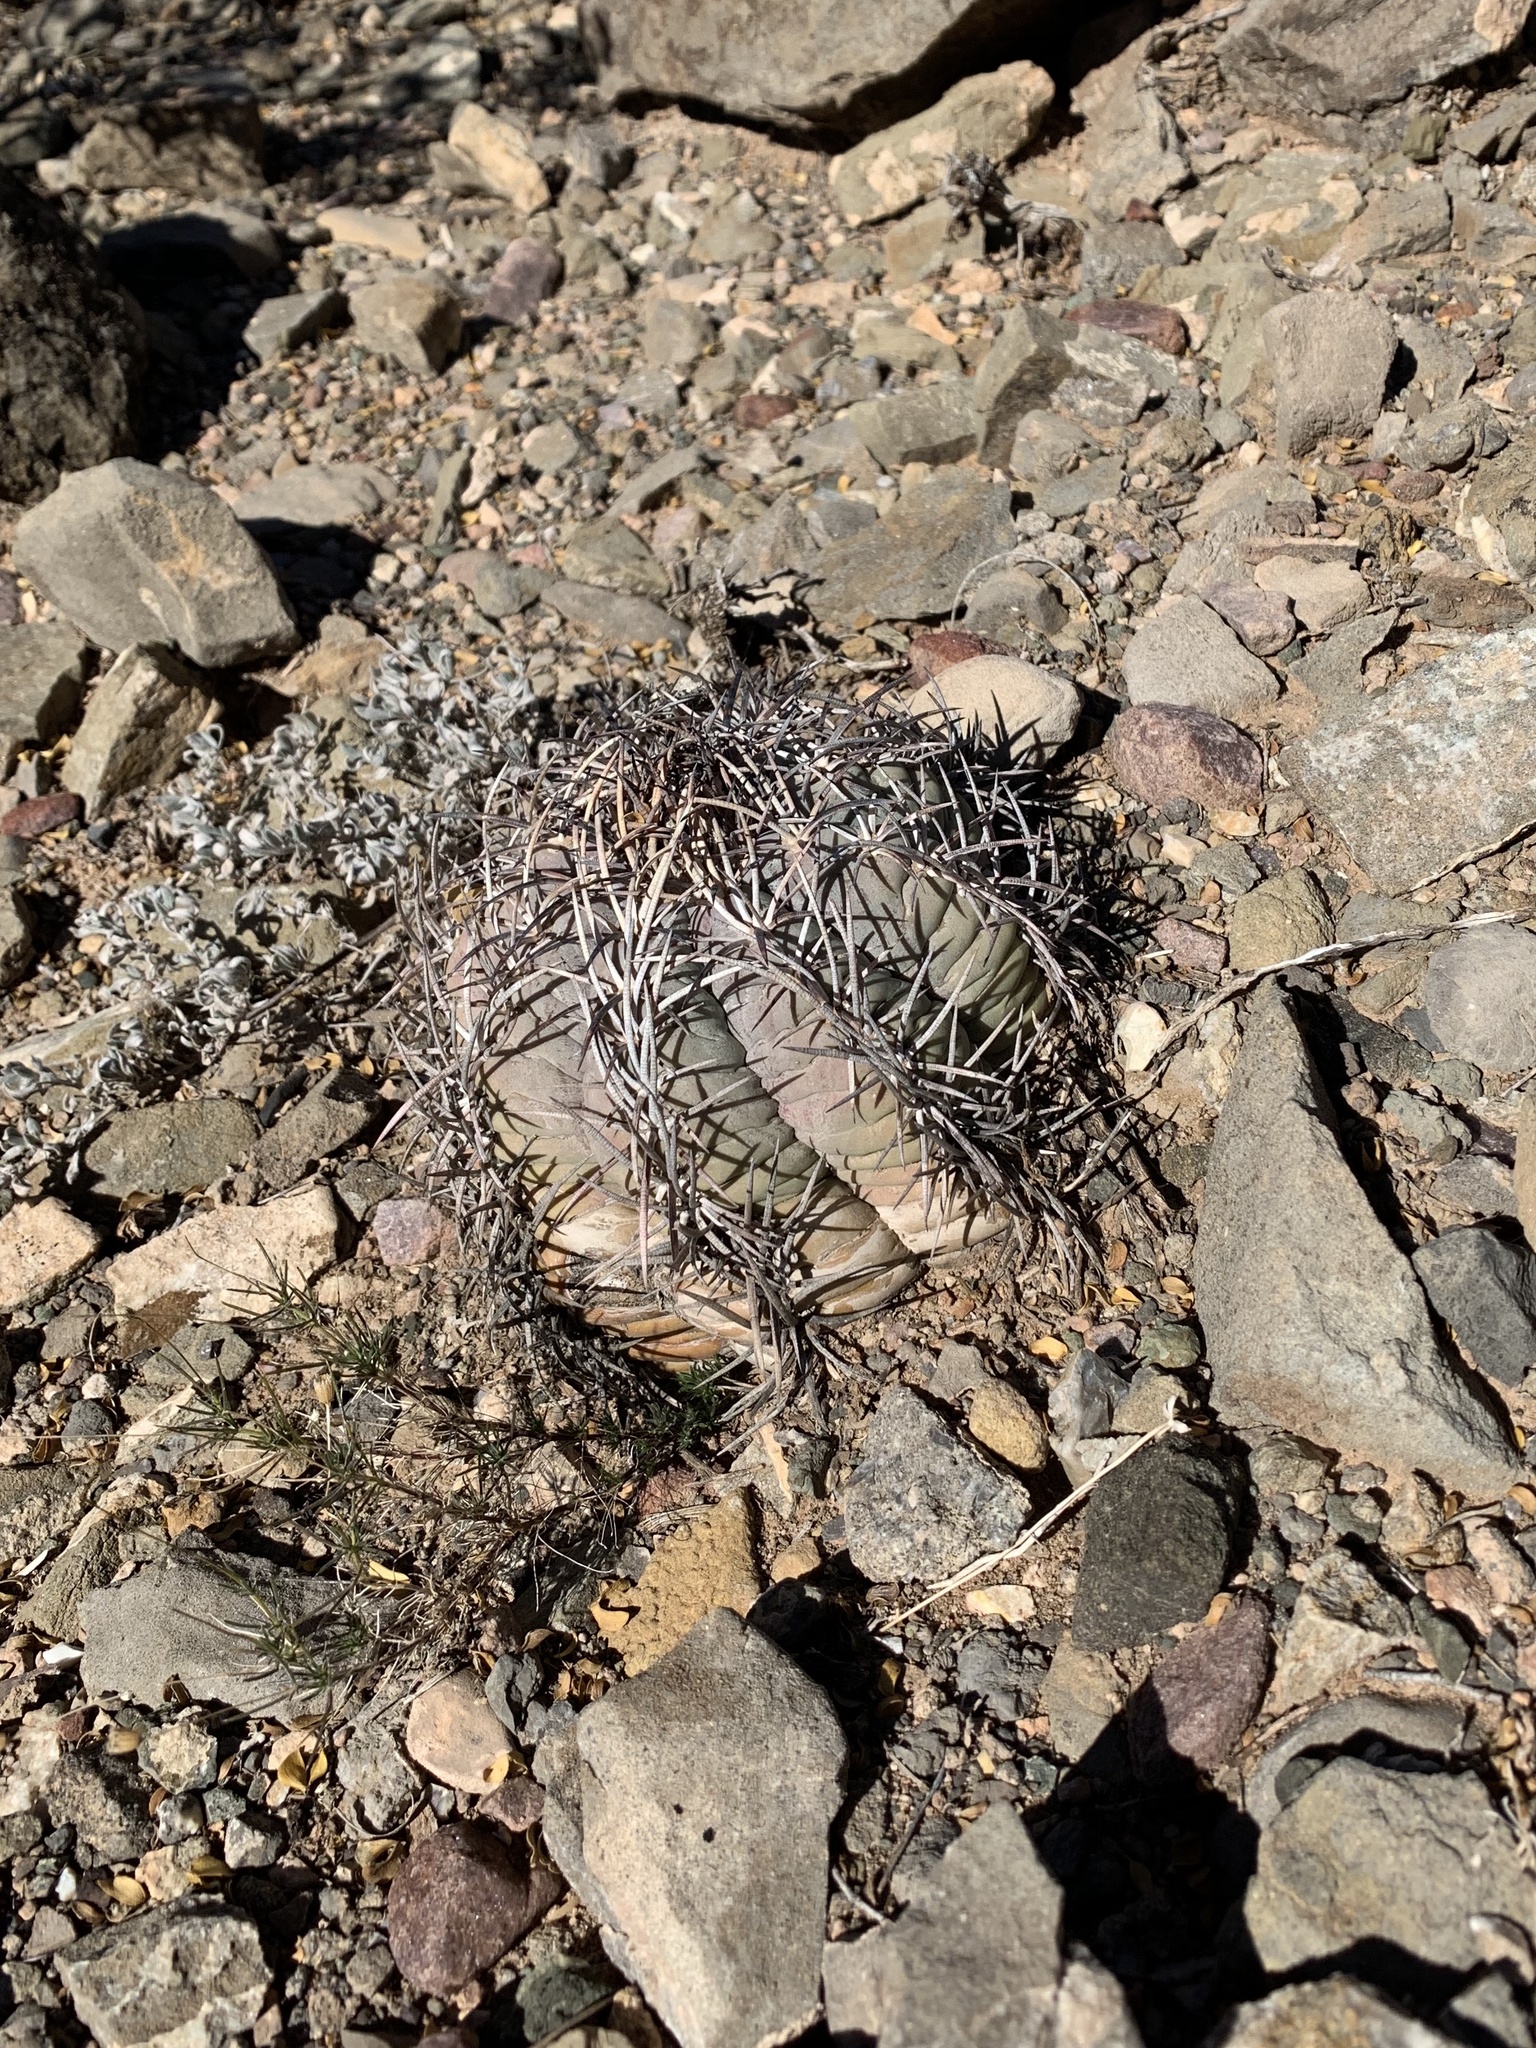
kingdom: Plantae
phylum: Tracheophyta
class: Magnoliopsida
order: Caryophyllales
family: Cactaceae
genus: Echinocactus
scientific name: Echinocactus horizonthalonius
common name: Devilshead
